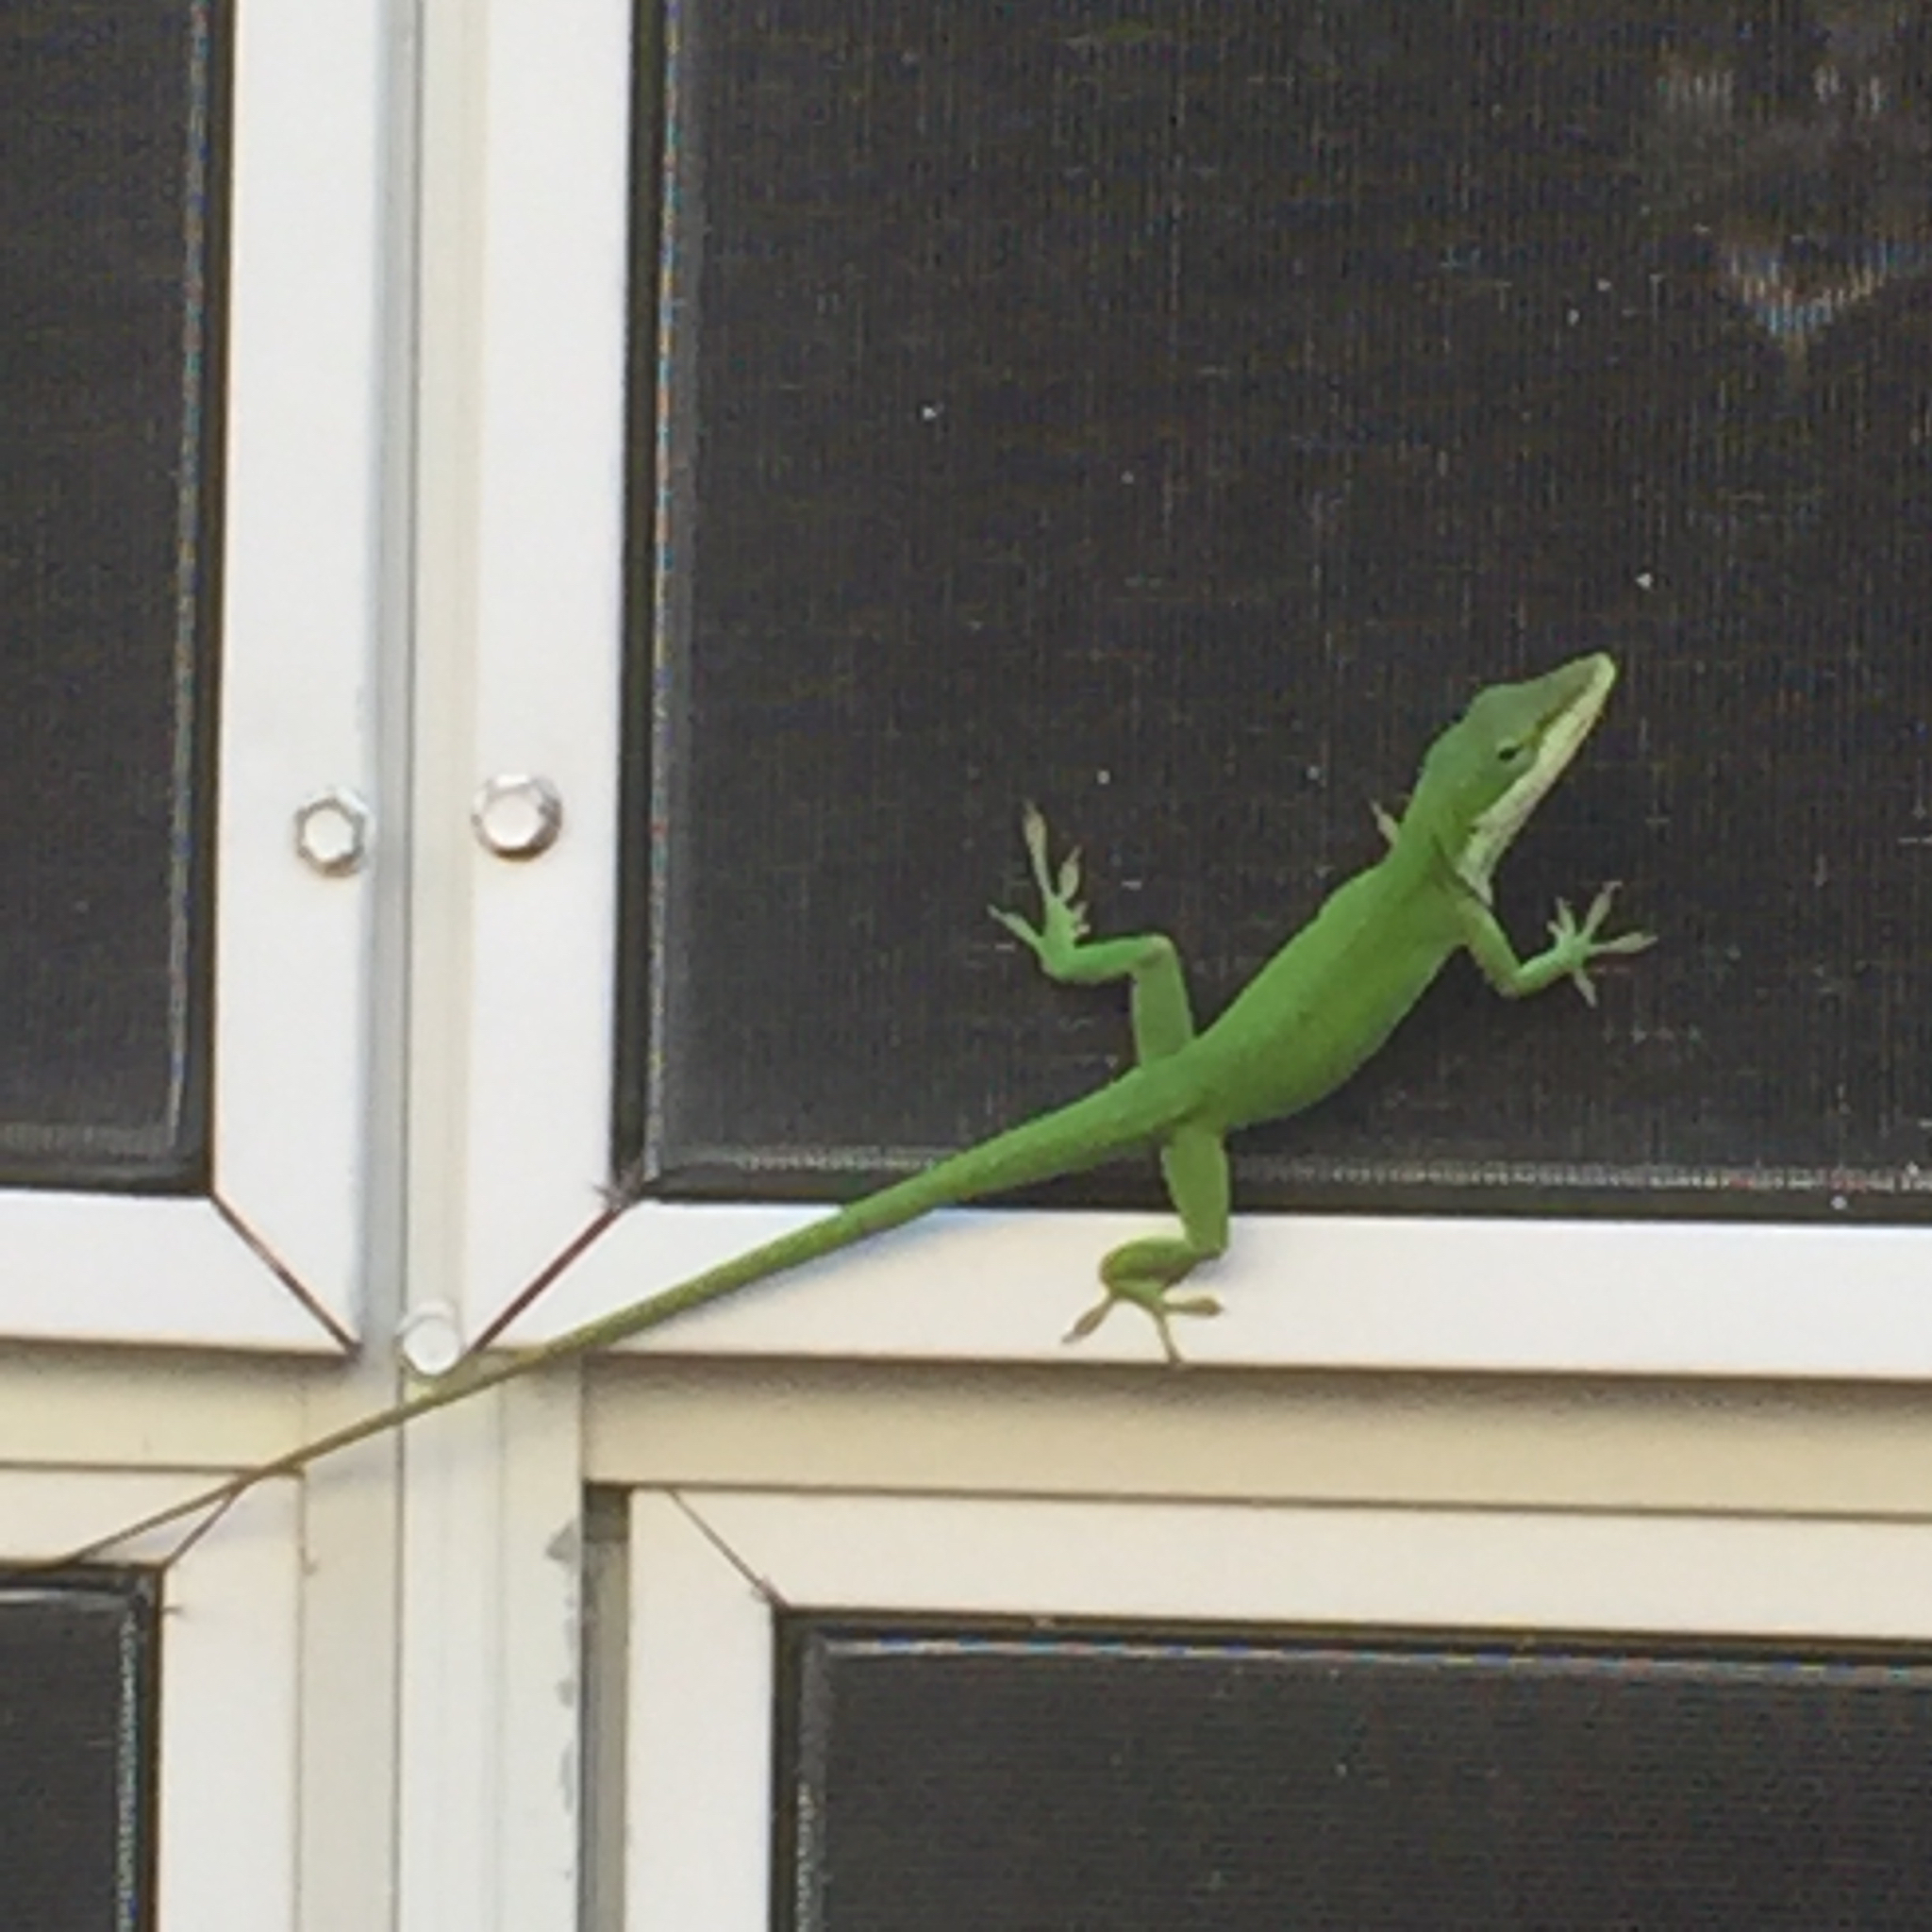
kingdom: Animalia
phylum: Chordata
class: Squamata
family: Dactyloidae
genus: Anolis
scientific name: Anolis carolinensis
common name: Green anole
